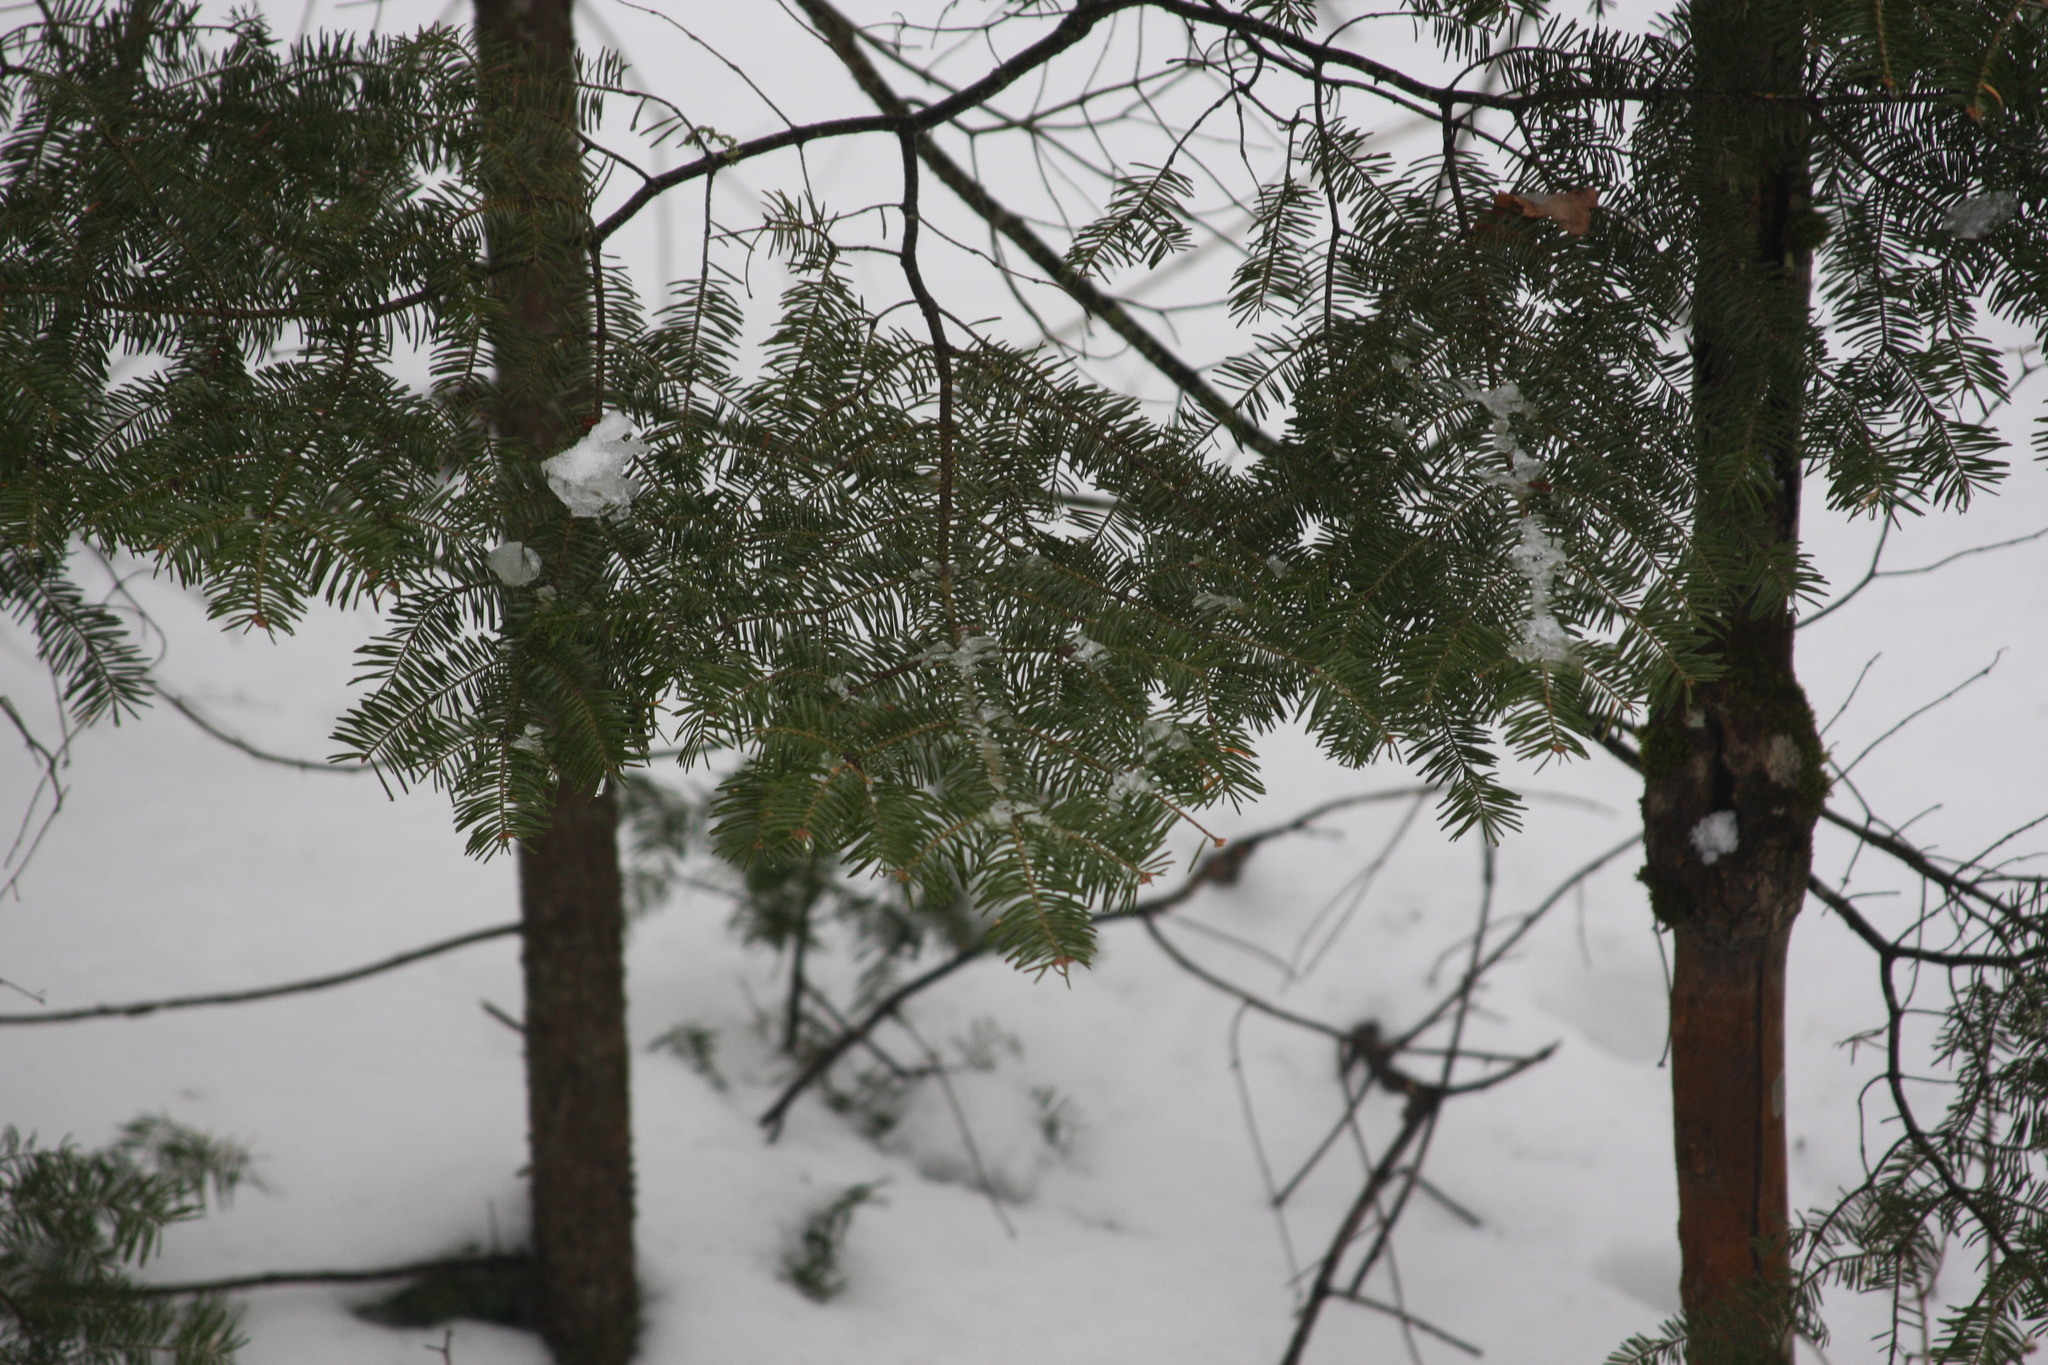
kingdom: Plantae
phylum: Tracheophyta
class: Pinopsida
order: Pinales
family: Pinaceae
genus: Abies
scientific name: Abies balsamea
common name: Balsam fir
